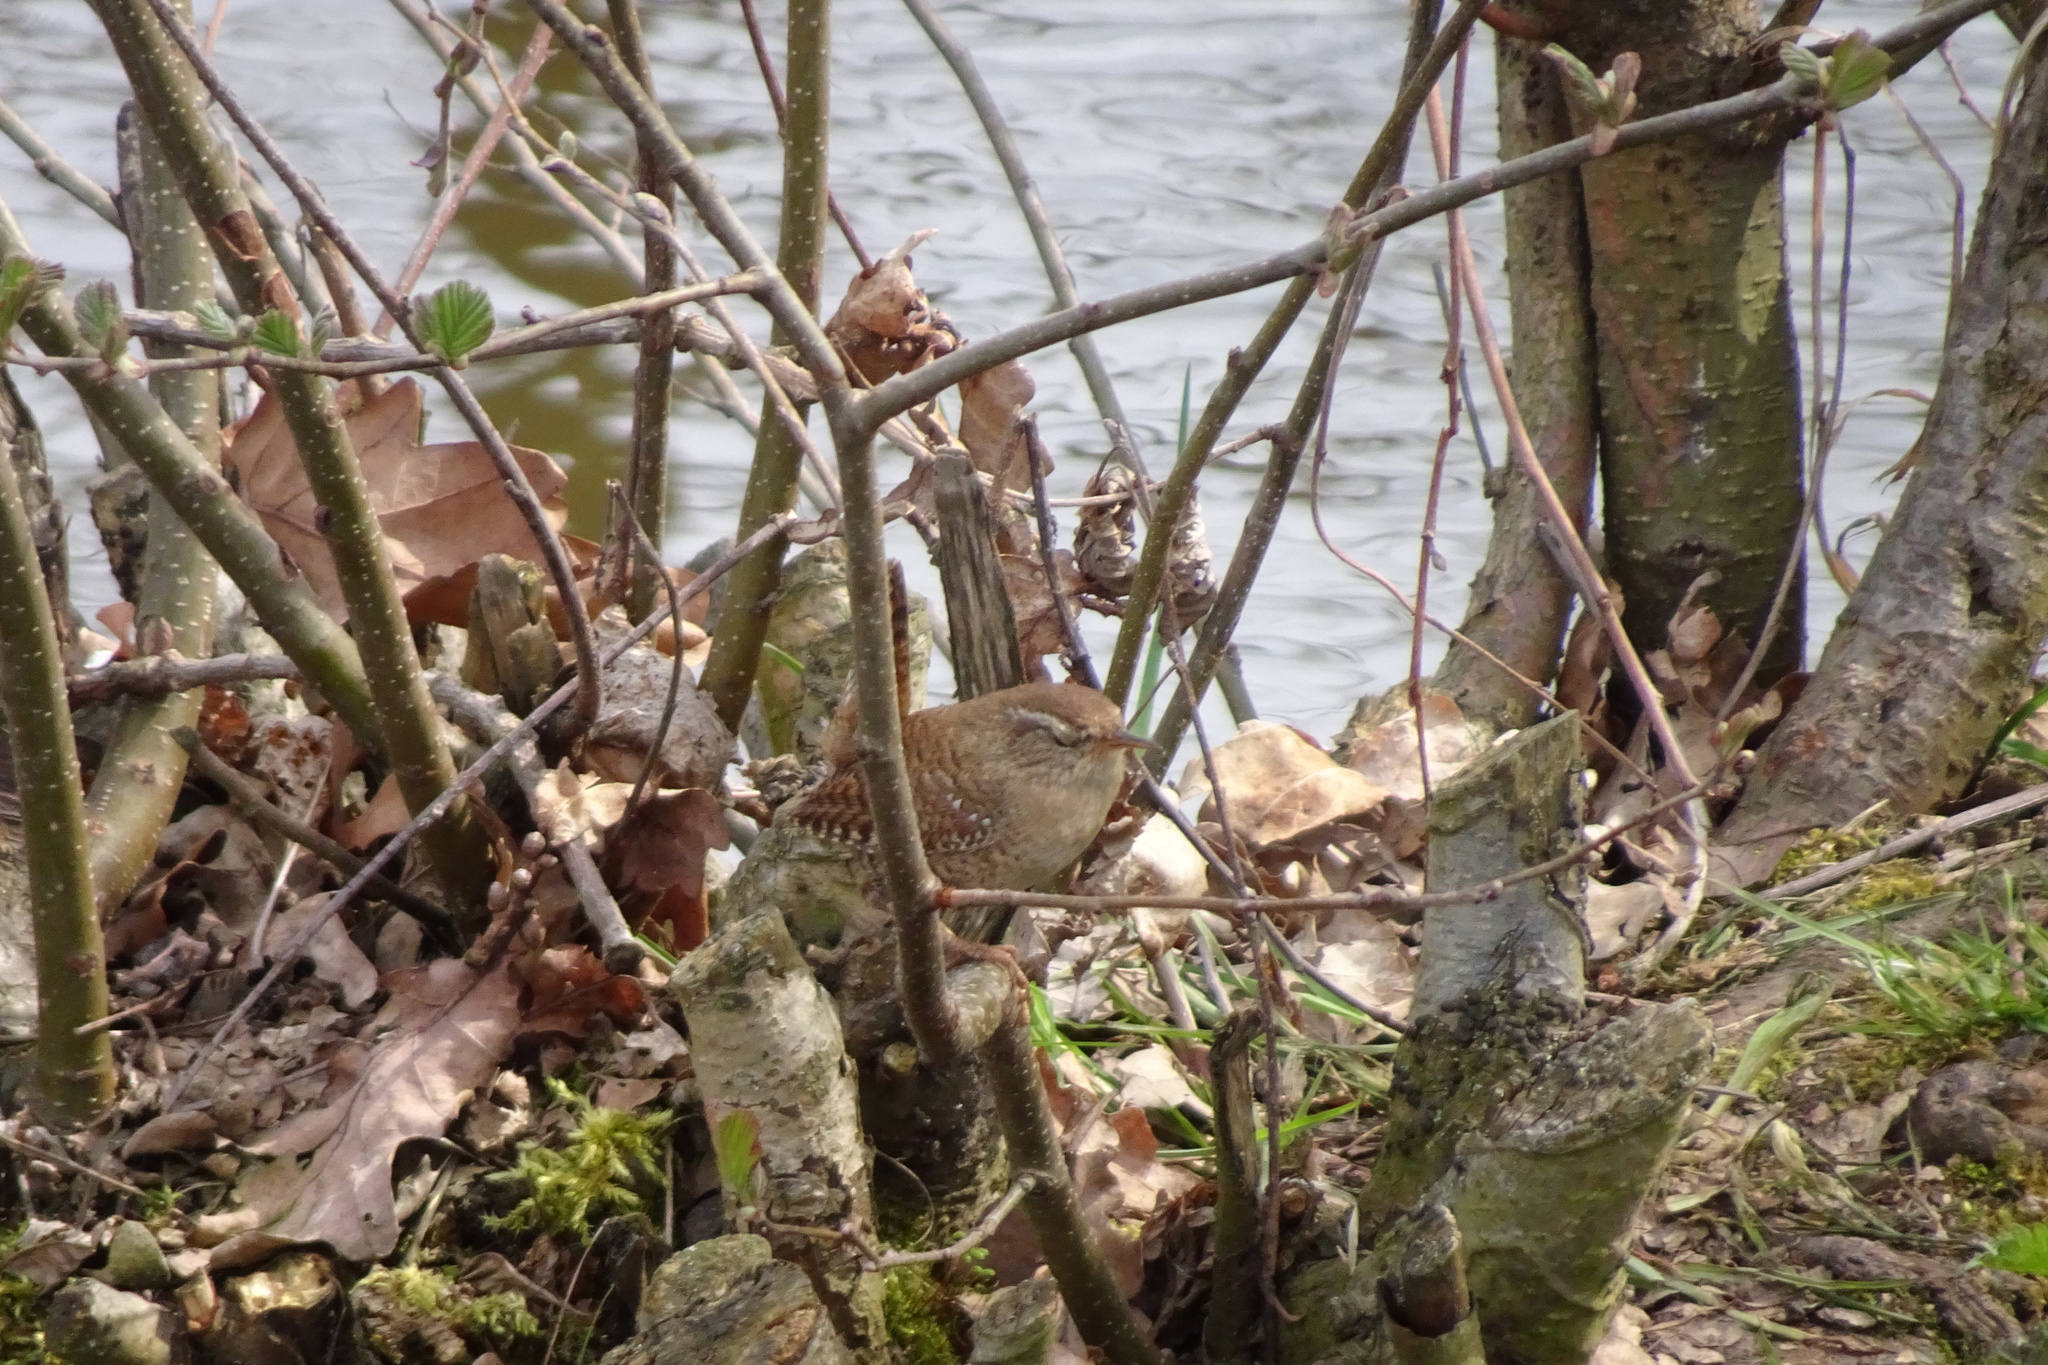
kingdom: Animalia
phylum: Chordata
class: Aves
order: Passeriformes
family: Troglodytidae
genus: Troglodytes
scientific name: Troglodytes troglodytes
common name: Eurasian wren
